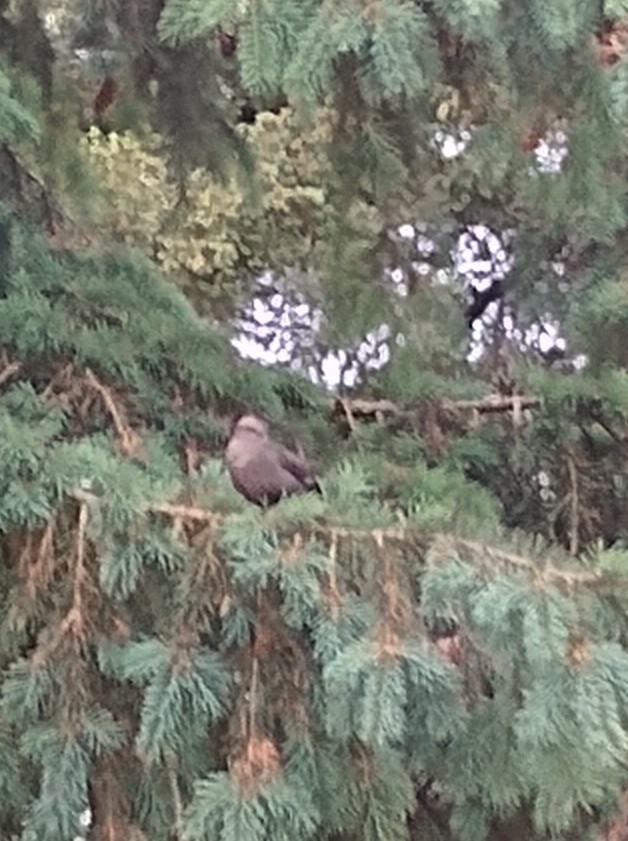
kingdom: Animalia
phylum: Chordata
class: Aves
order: Passeriformes
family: Icteridae
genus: Euphagus
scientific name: Euphagus cyanocephalus
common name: Brewer's blackbird
